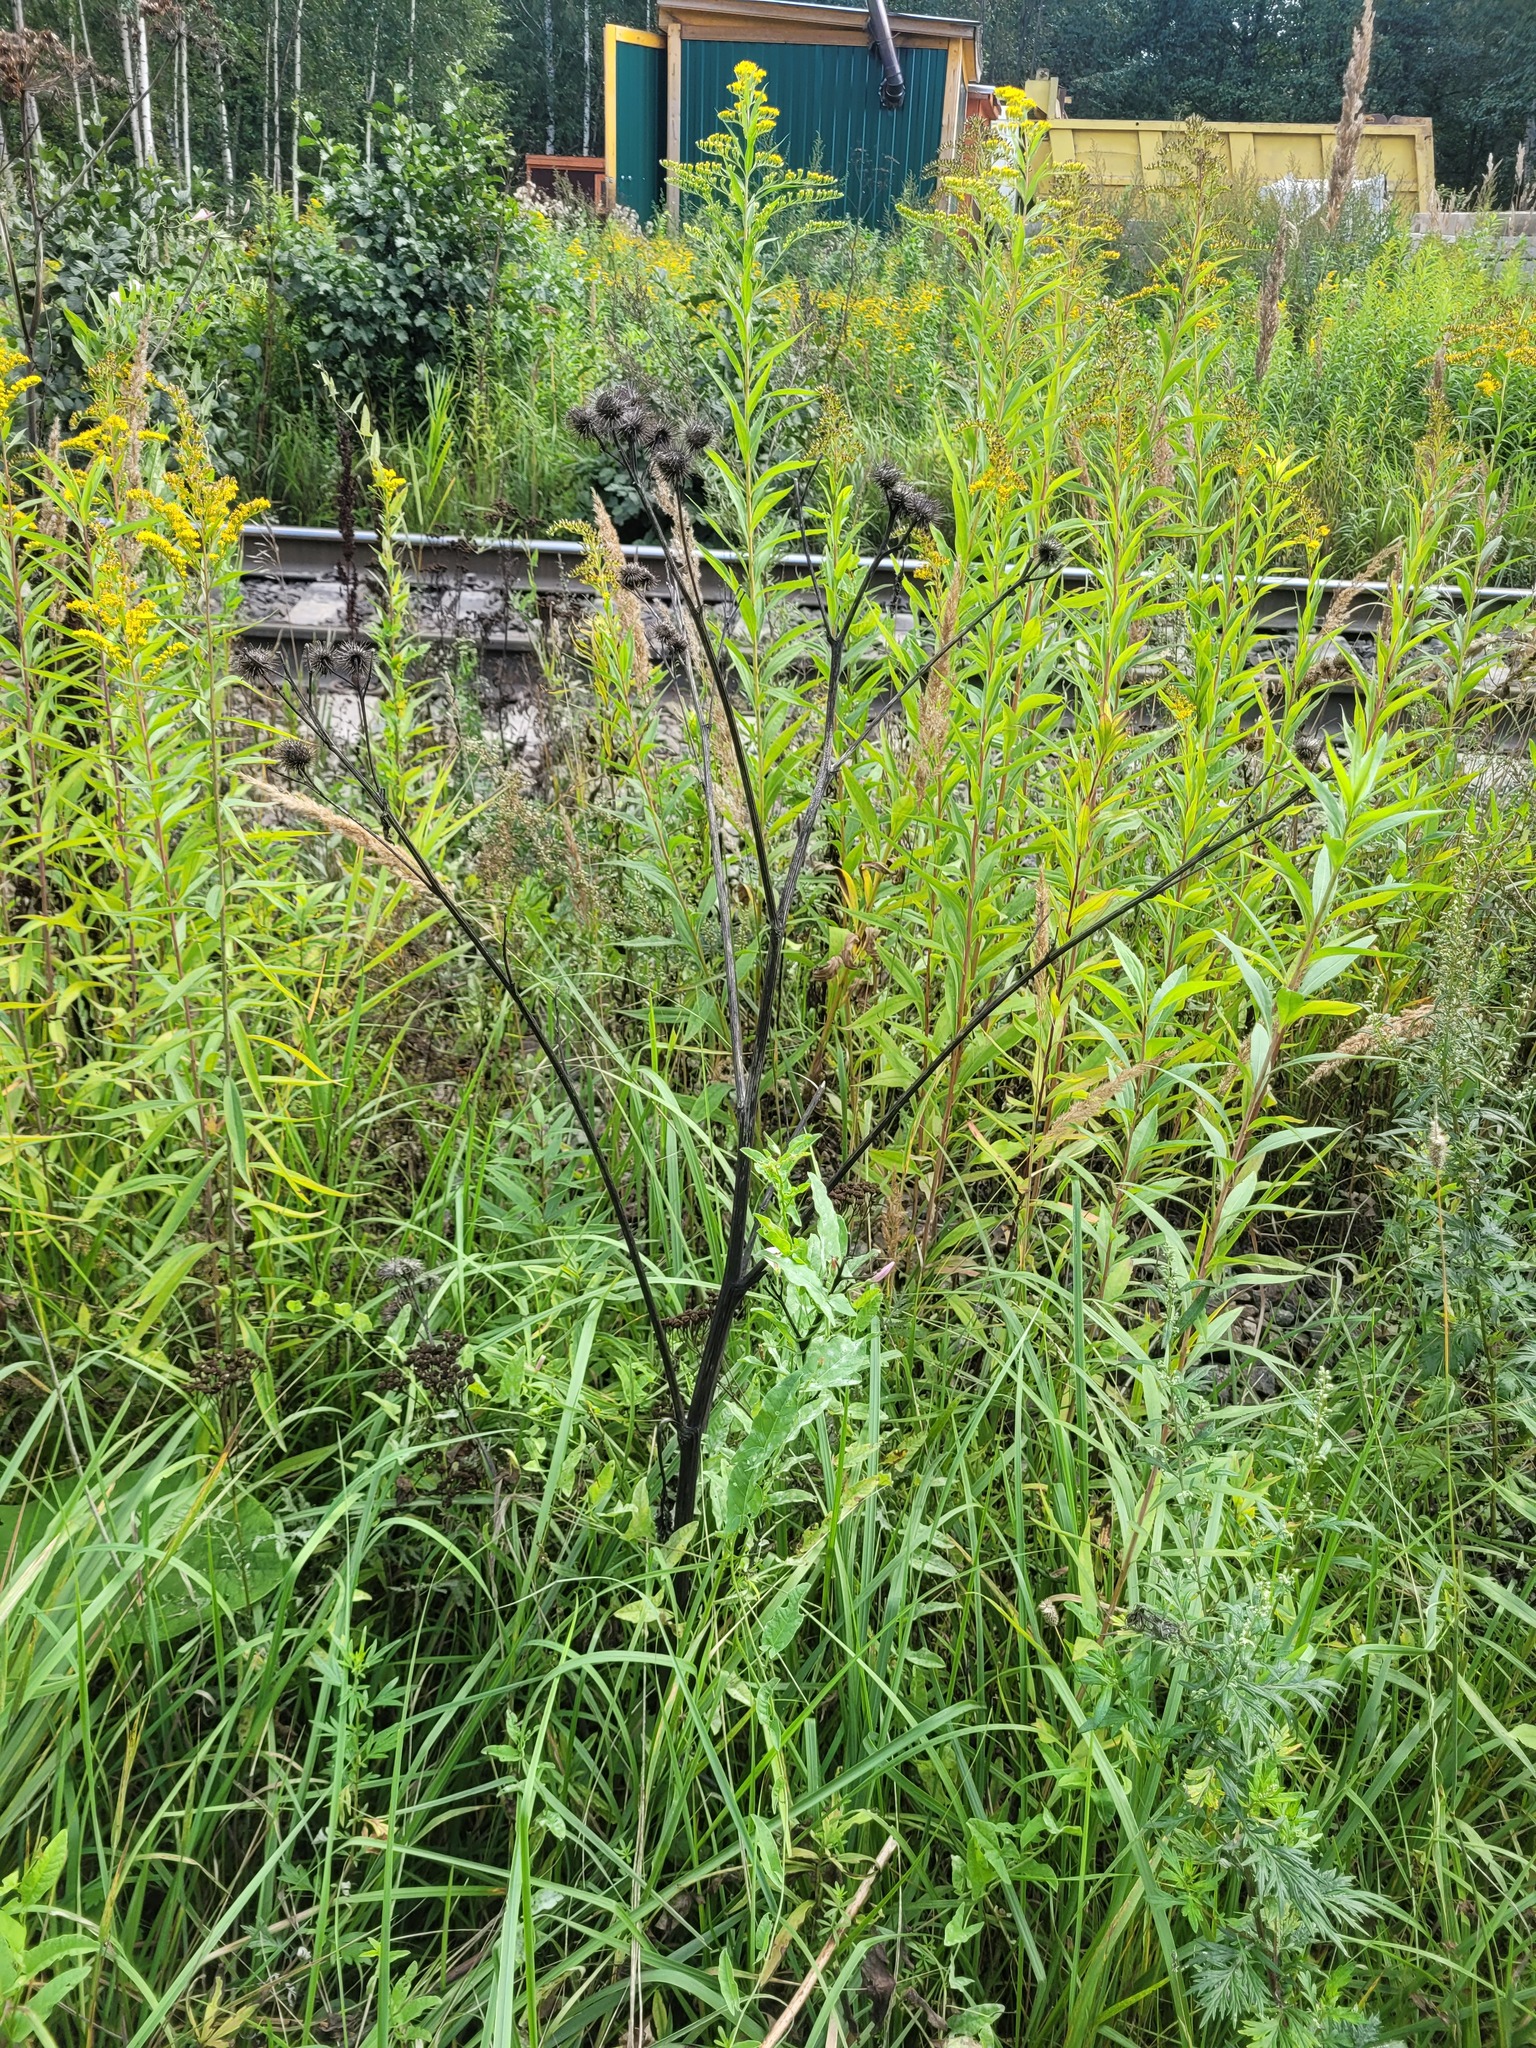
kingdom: Plantae
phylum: Tracheophyta
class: Magnoliopsida
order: Asterales
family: Asteraceae
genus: Arctium
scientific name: Arctium
